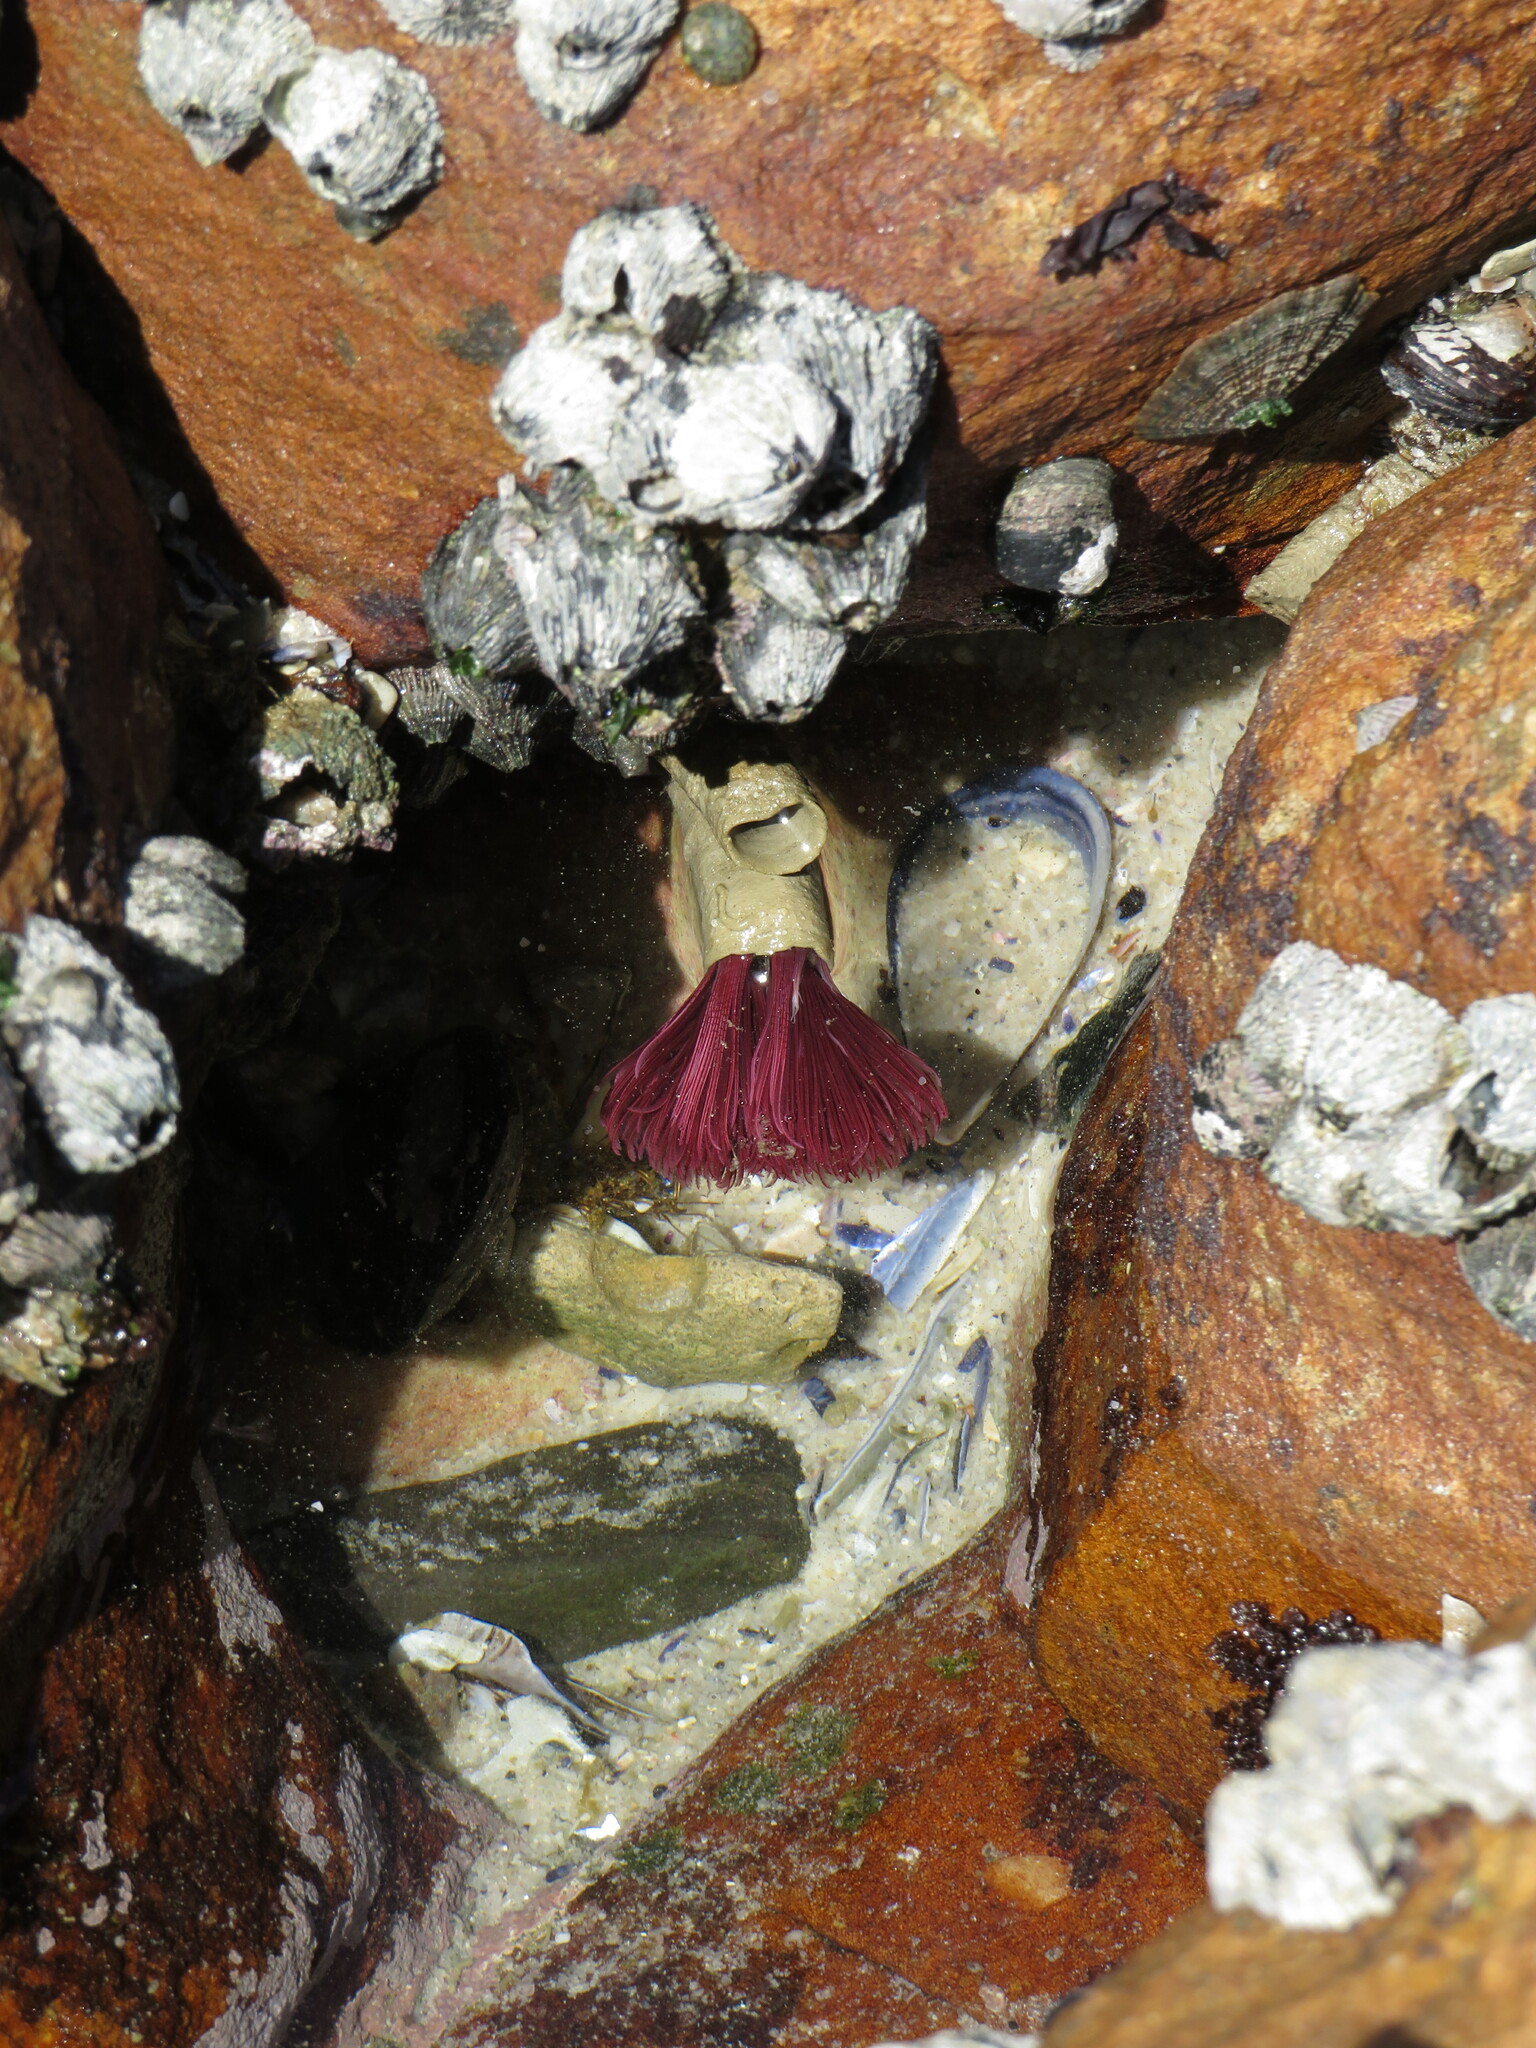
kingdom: Animalia
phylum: Annelida
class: Polychaeta
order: Sabellida
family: Sabellidae
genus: Pseudobranchiomma
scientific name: Pseudobranchiomma longa
